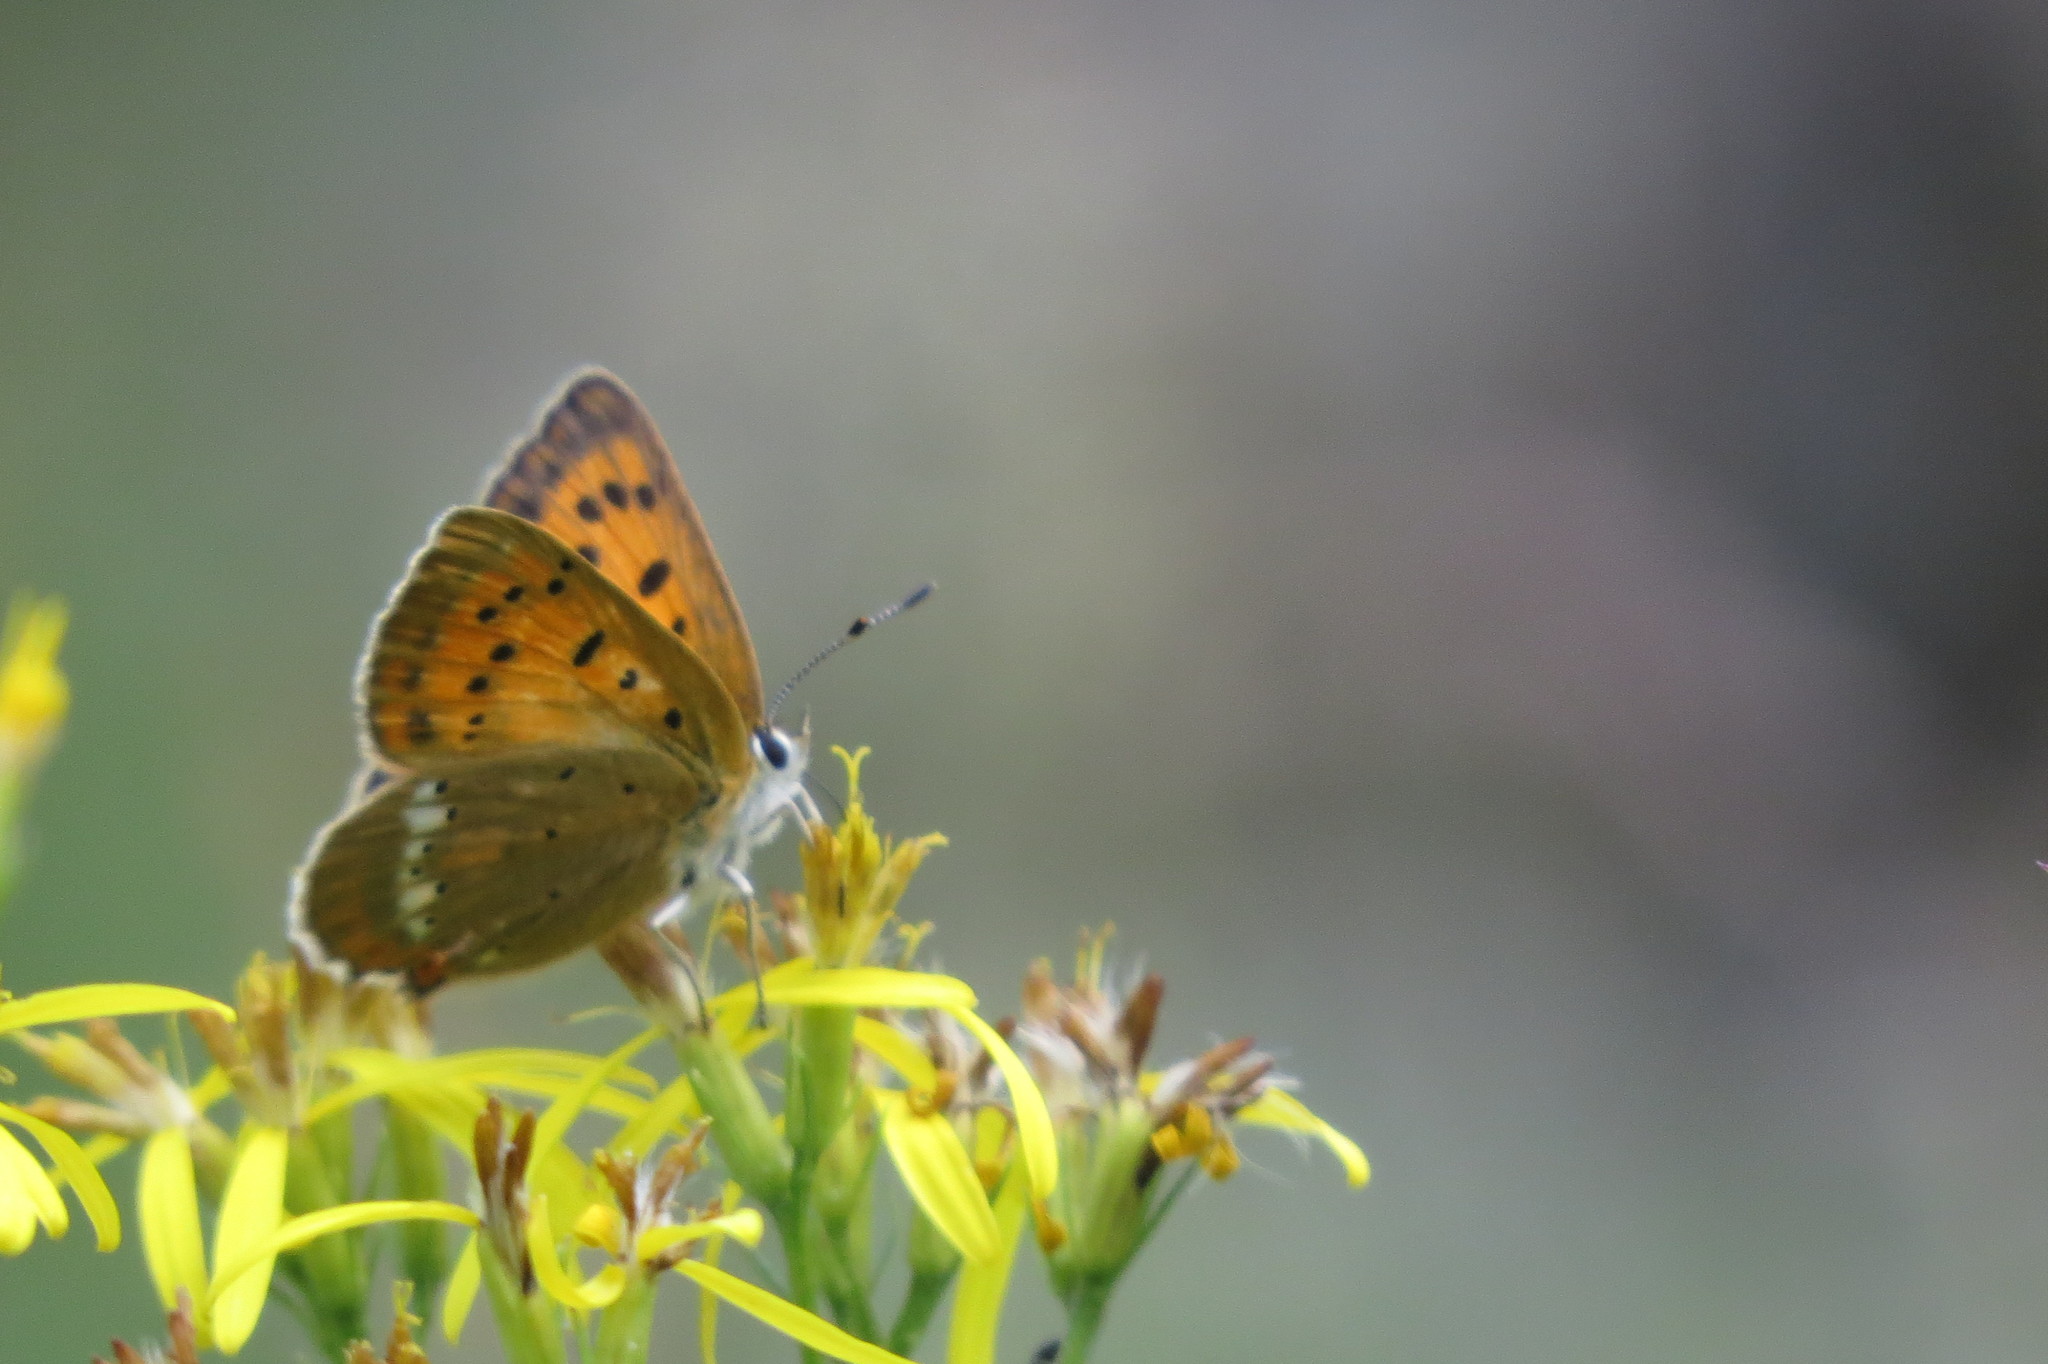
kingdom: Animalia
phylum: Arthropoda
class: Insecta
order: Lepidoptera
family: Lycaenidae
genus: Lycaena
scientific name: Lycaena virgaureae
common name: Scarce copper
